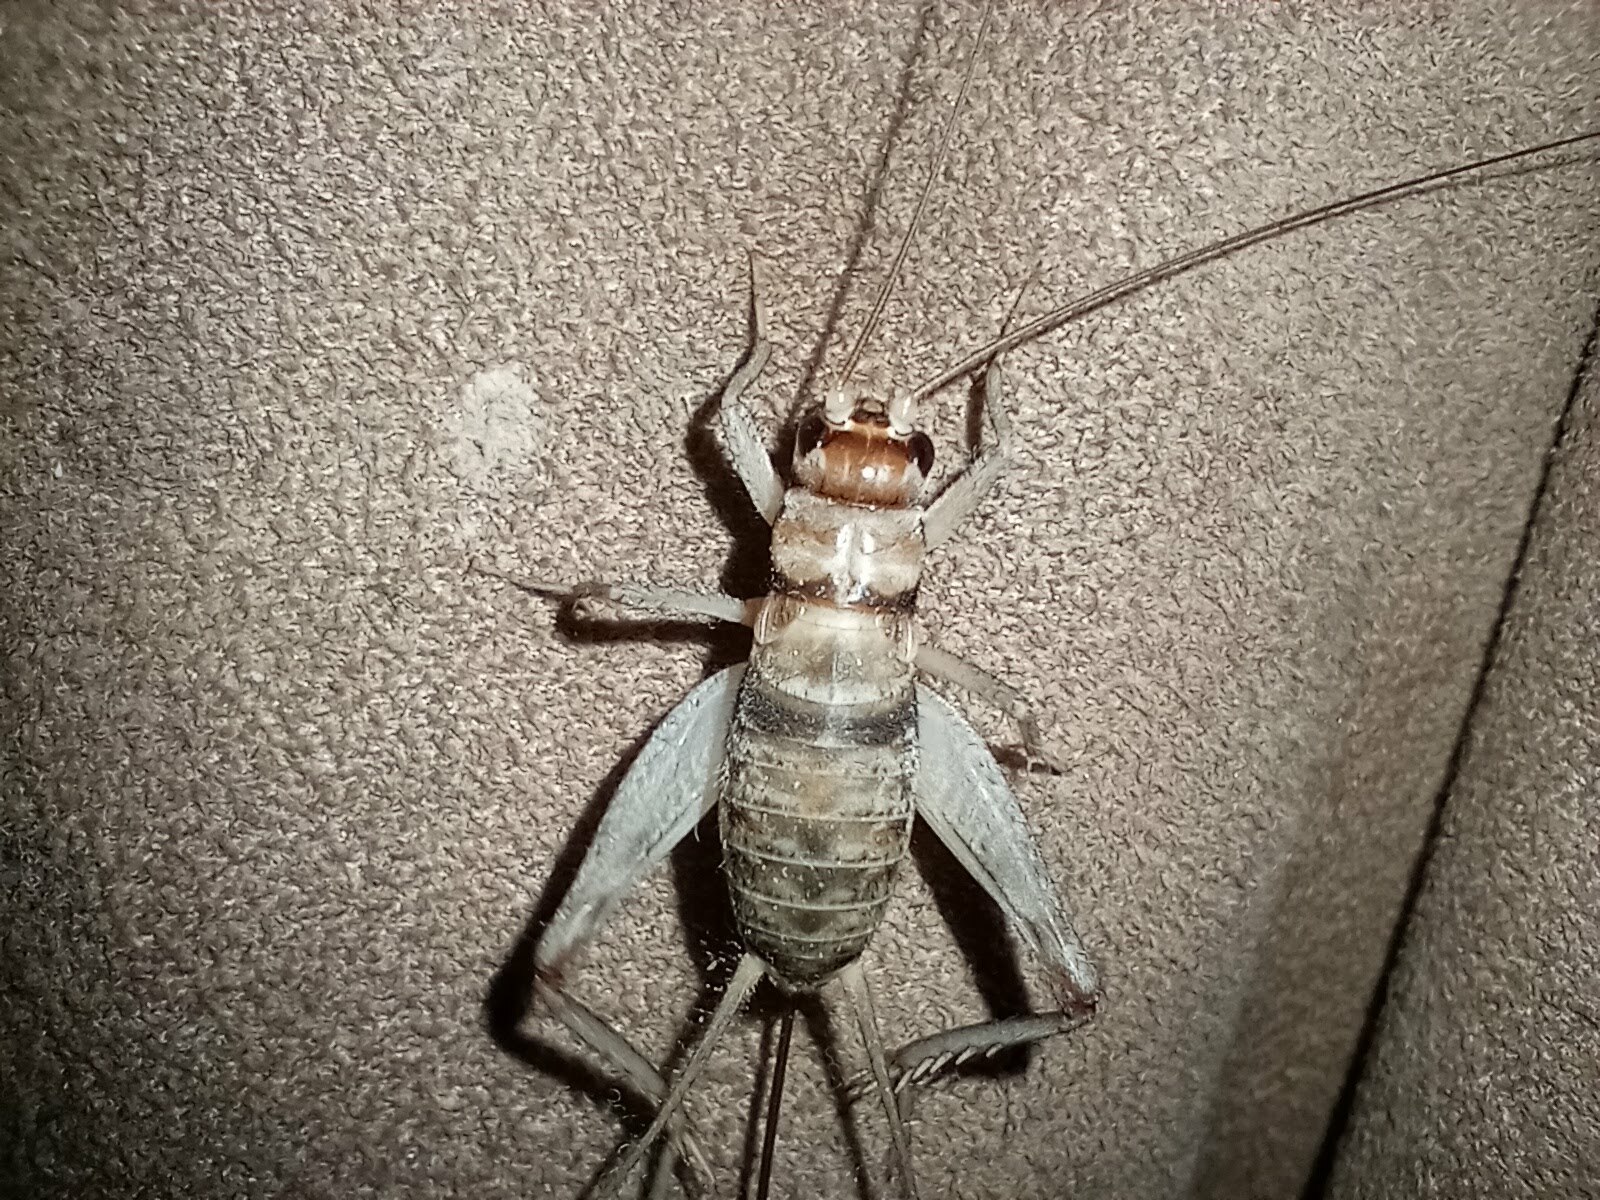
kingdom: Animalia
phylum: Arthropoda
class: Insecta
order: Orthoptera
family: Gryllidae
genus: Gryllodes
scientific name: Gryllodes sigillatus
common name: Tropical house cricket
